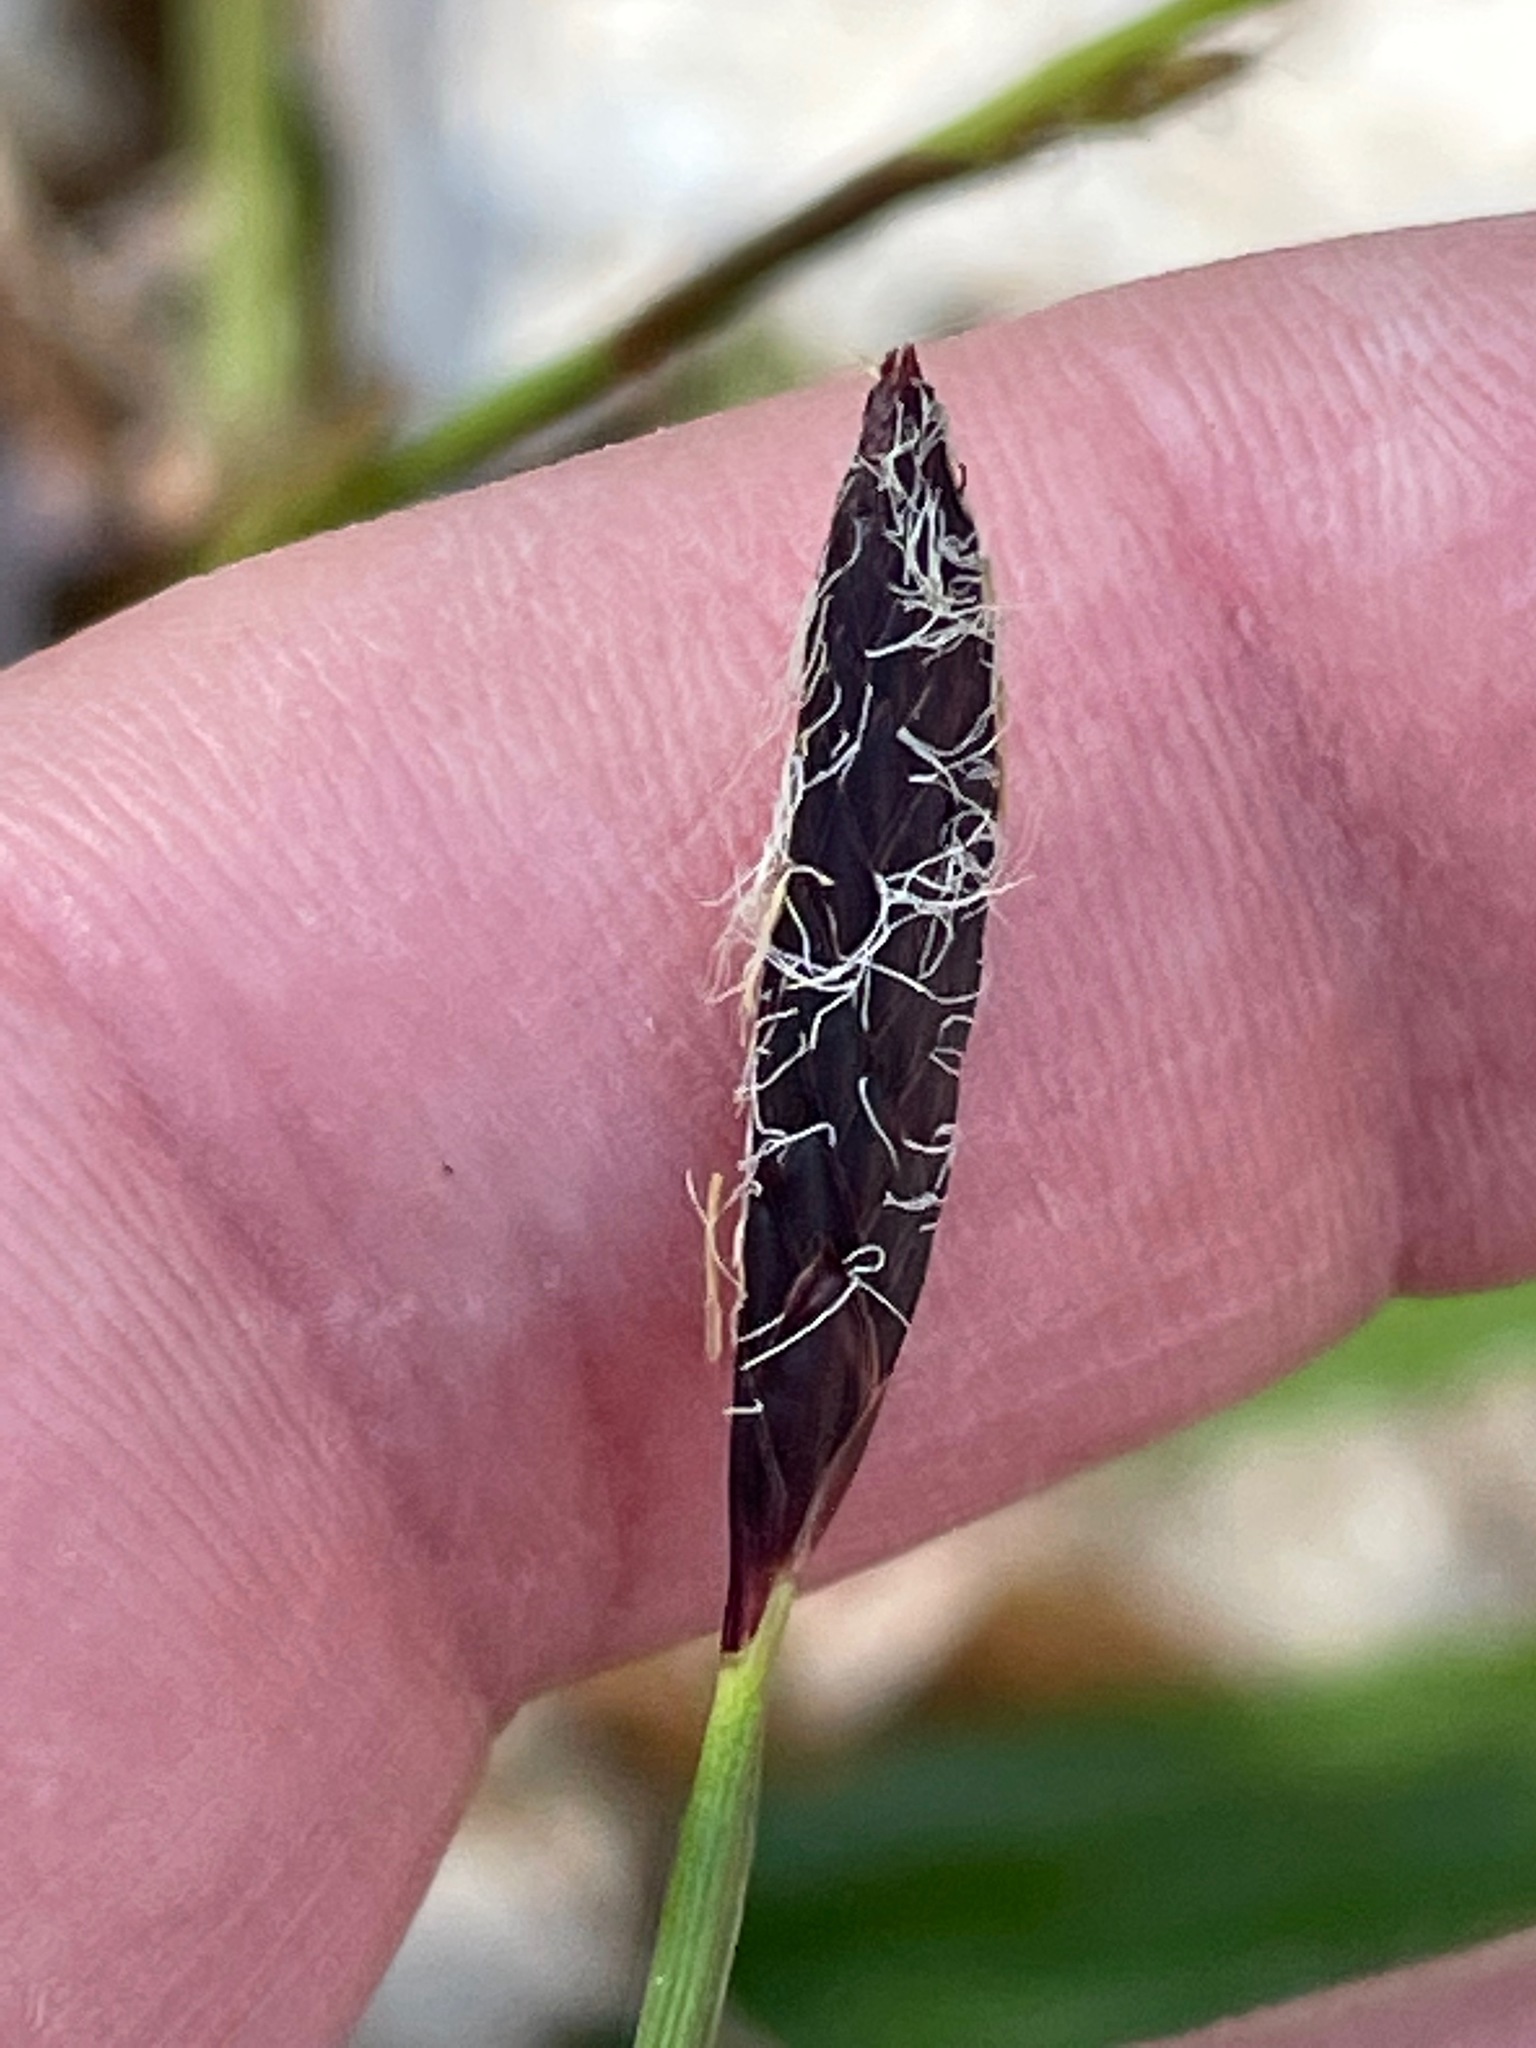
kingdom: Plantae
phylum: Tracheophyta
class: Liliopsida
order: Poales
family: Cyperaceae
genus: Carex
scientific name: Carex plantaginea
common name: Plantain-leaved sedge
